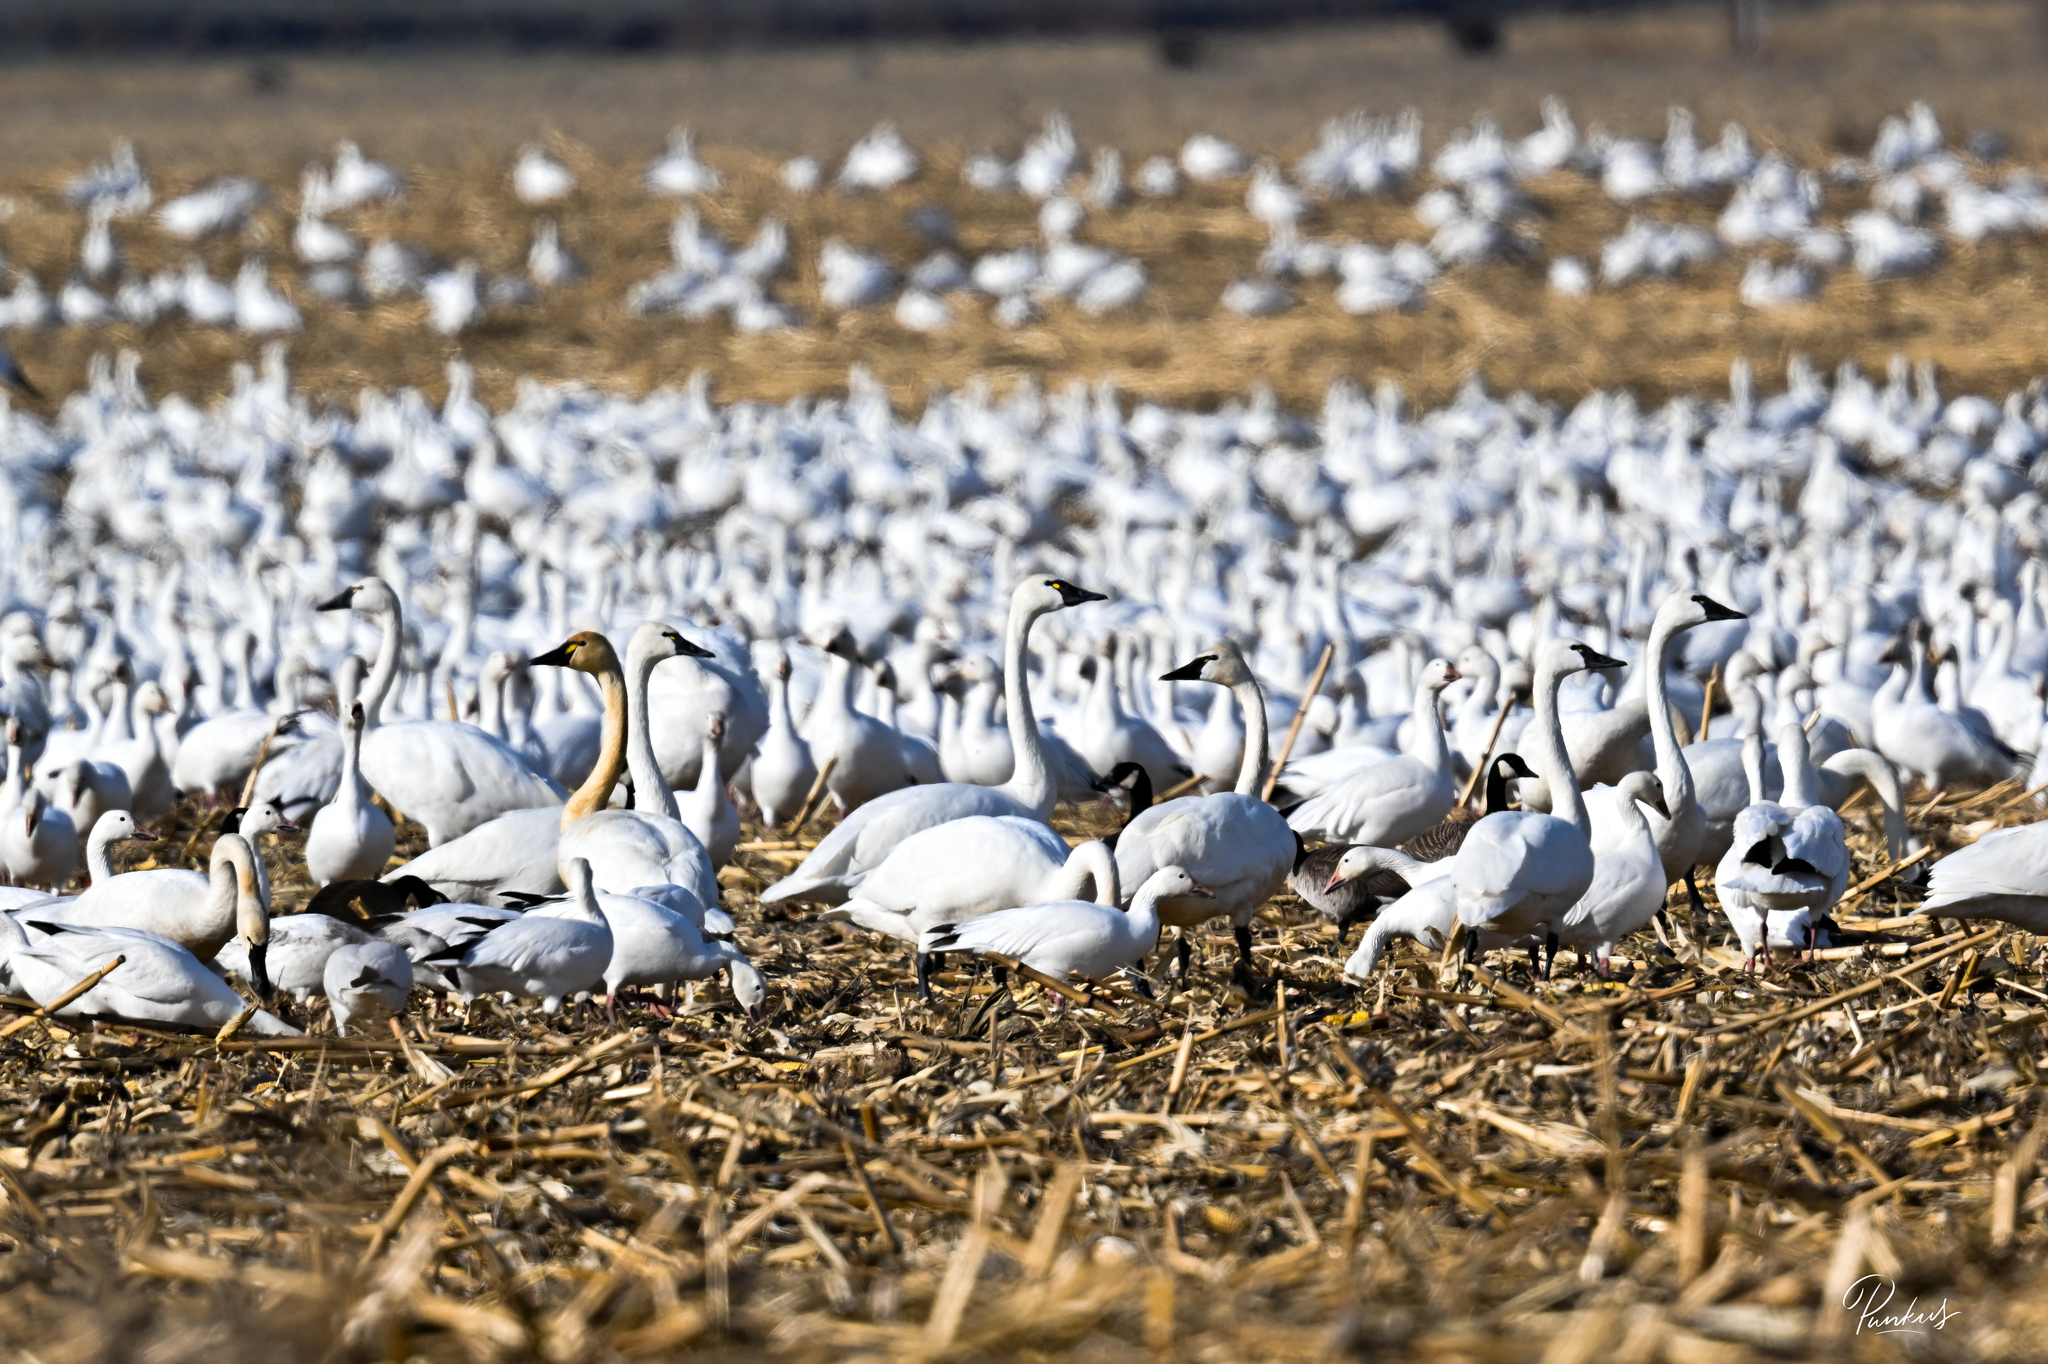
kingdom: Animalia
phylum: Chordata
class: Aves
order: Anseriformes
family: Anatidae
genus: Cygnus
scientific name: Cygnus columbianus
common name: Tundra swan
